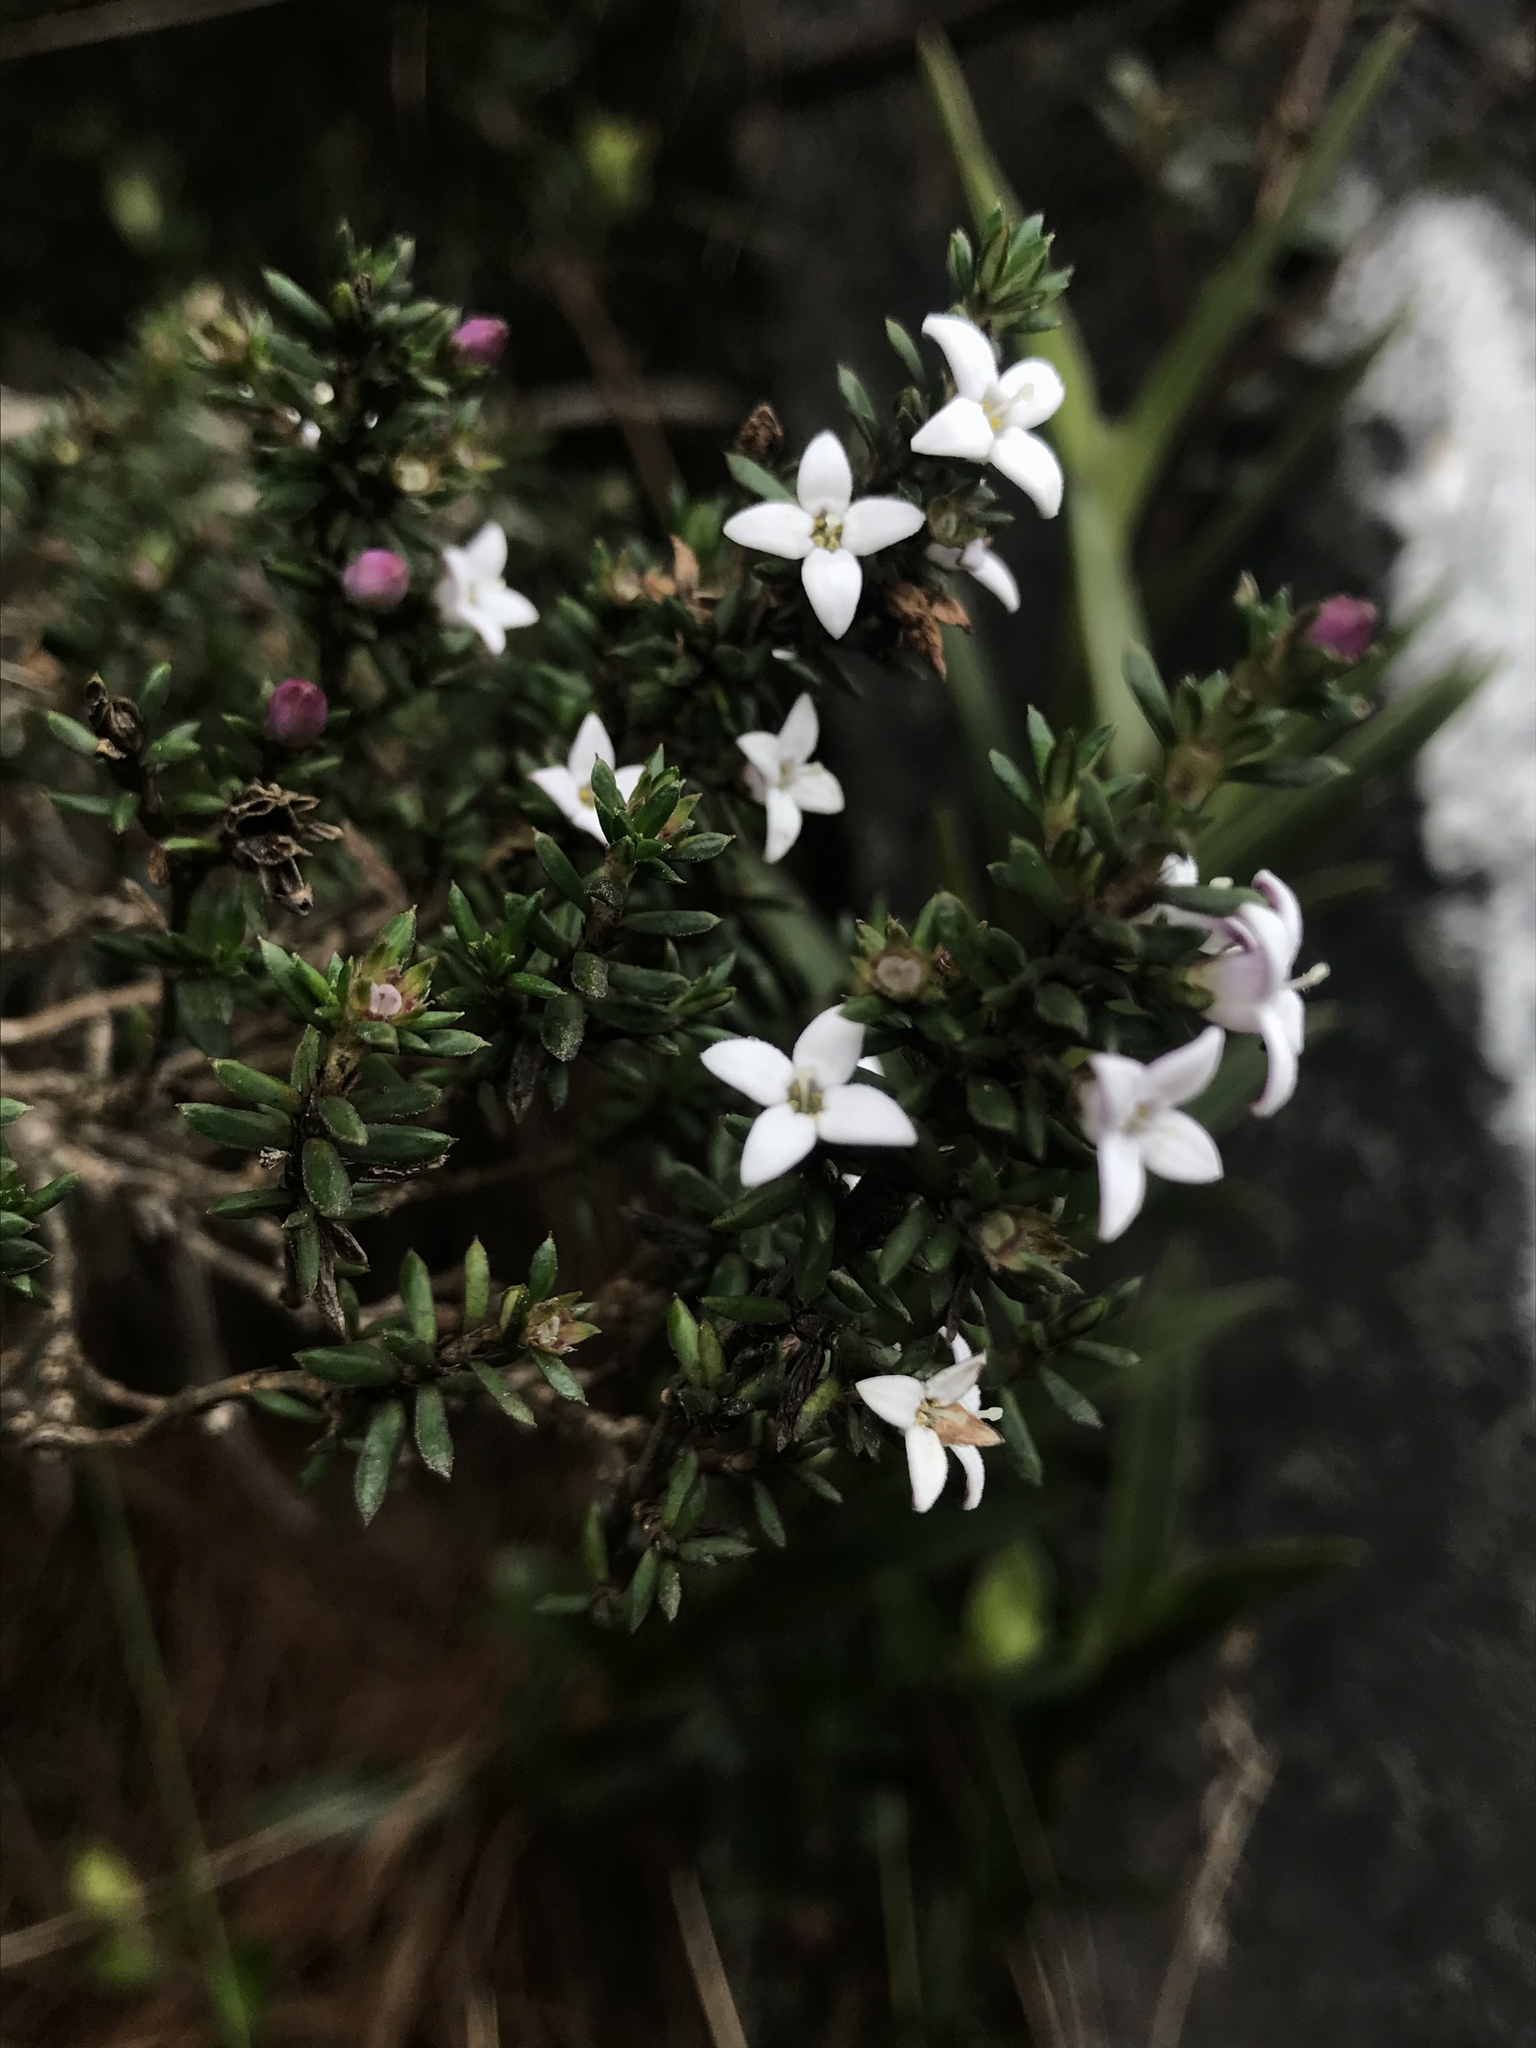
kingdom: Plantae
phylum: Tracheophyta
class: Magnoliopsida
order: Gentianales
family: Rubiaceae
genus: Arcytophyllum
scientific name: Arcytophyllum nitidum
